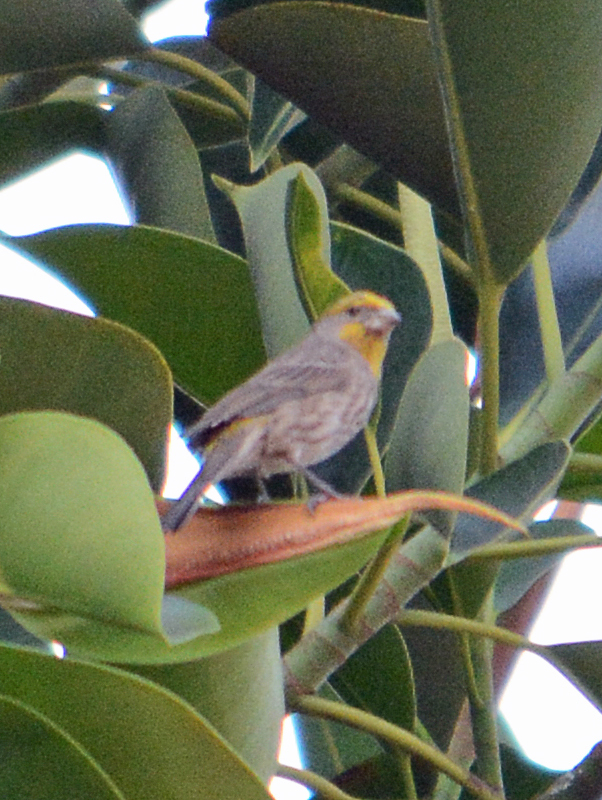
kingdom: Animalia
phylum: Chordata
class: Aves
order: Passeriformes
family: Fringillidae
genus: Haemorhous
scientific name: Haemorhous mexicanus
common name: House finch
